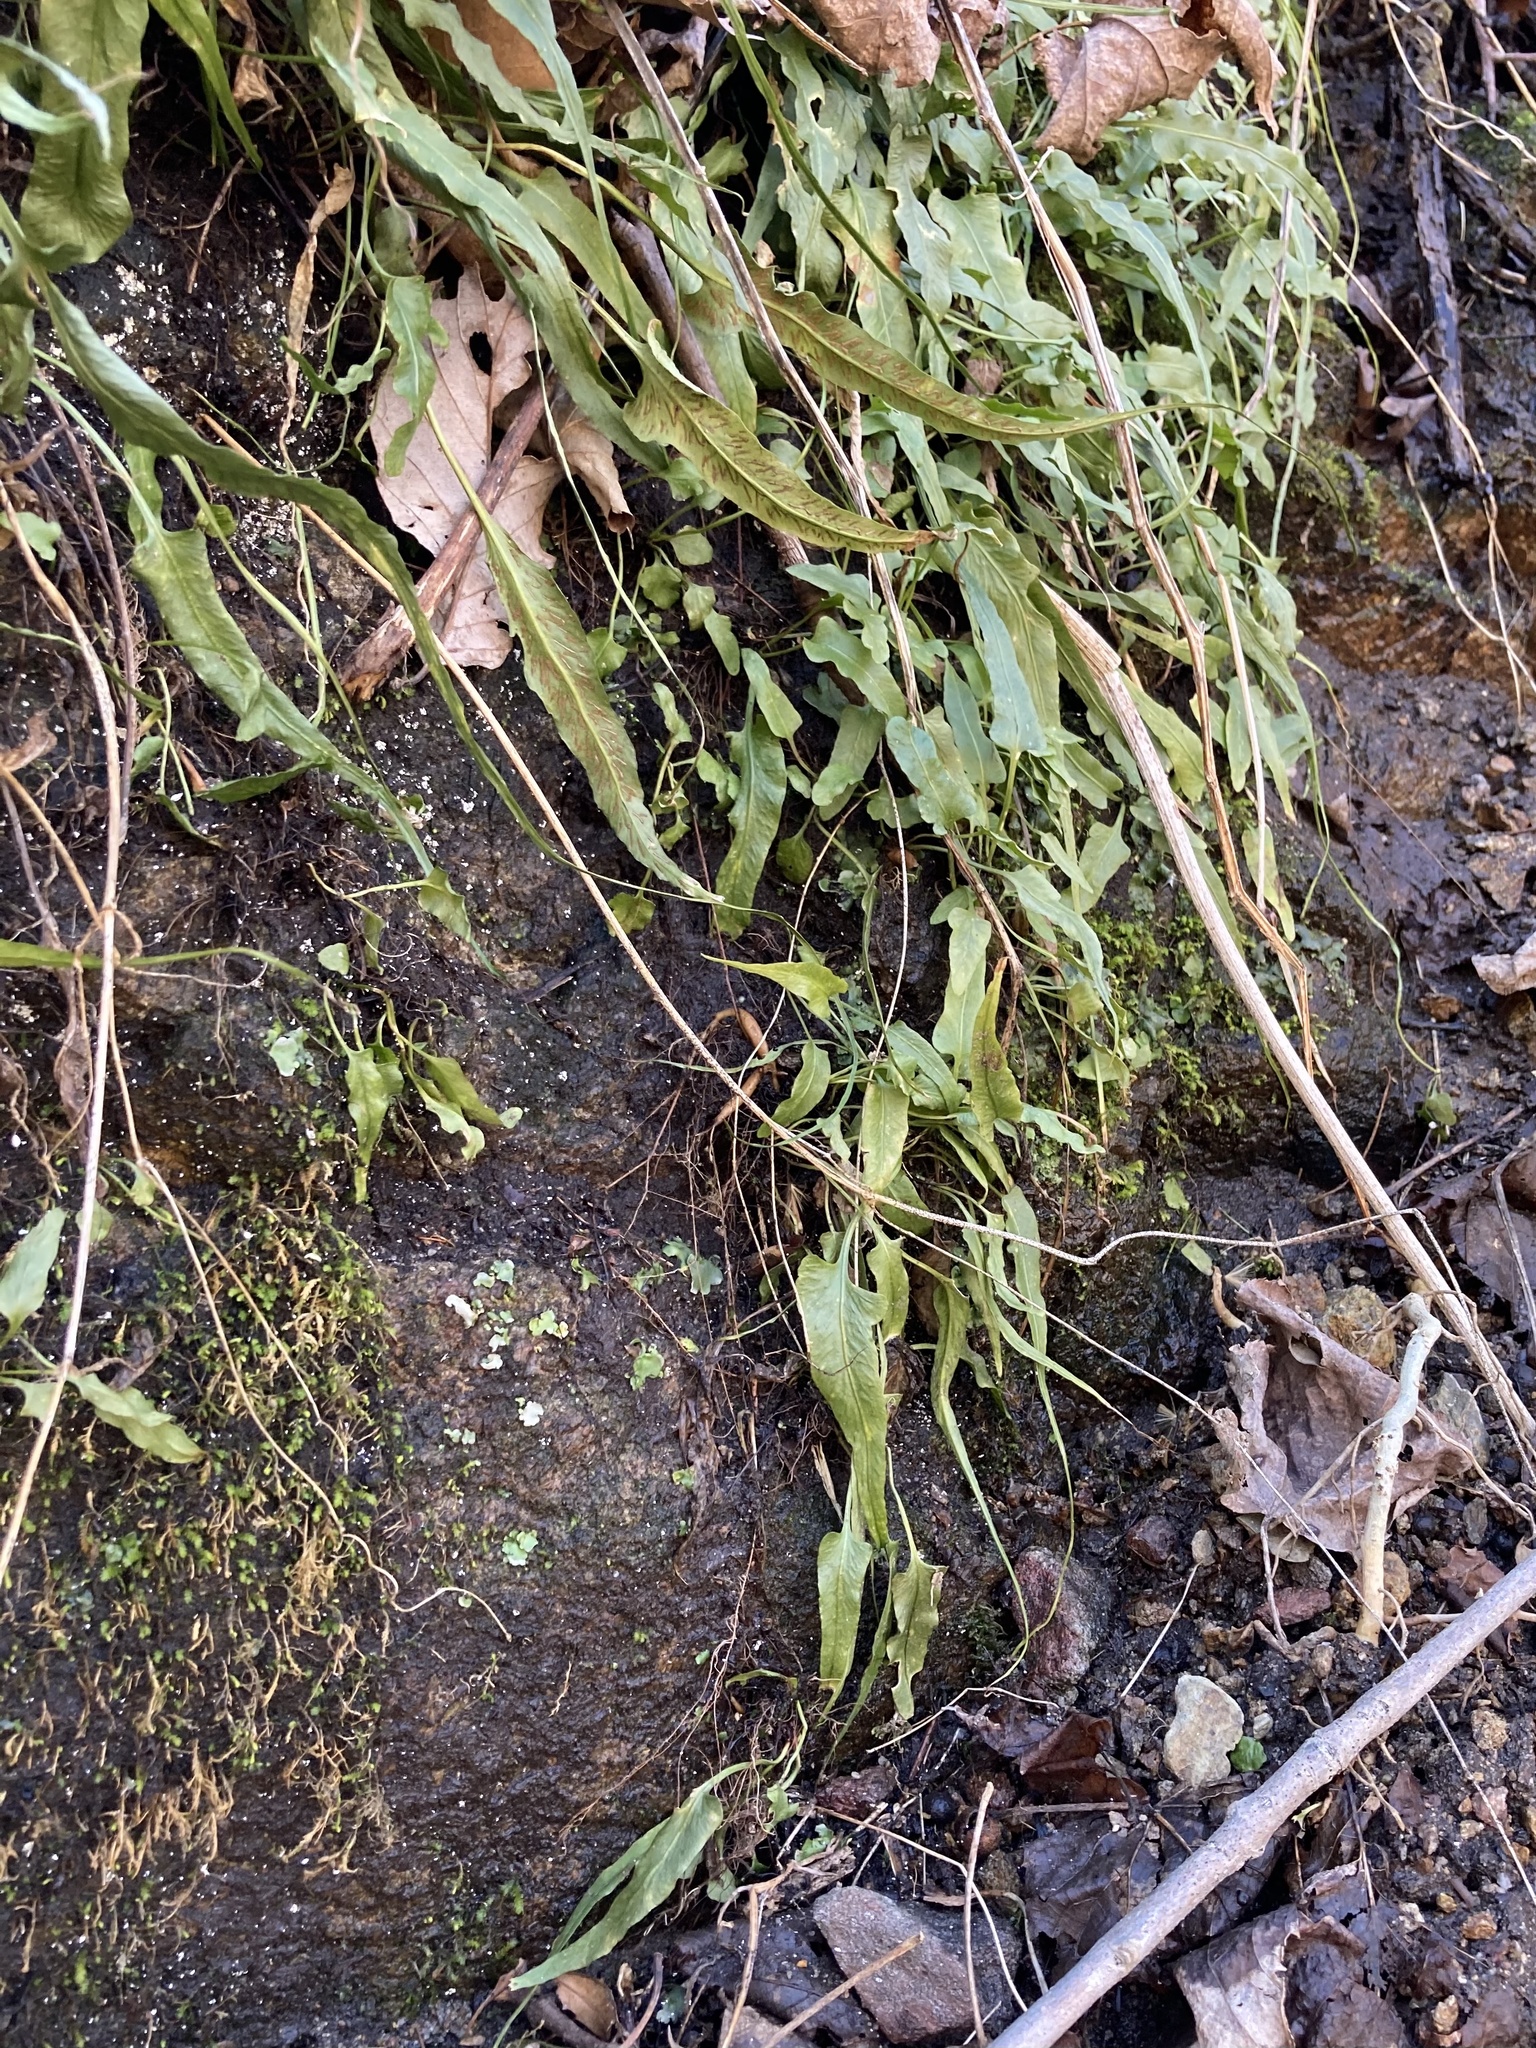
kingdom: Plantae
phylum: Tracheophyta
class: Polypodiopsida
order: Polypodiales
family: Aspleniaceae
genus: Asplenium
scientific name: Asplenium rhizophyllum
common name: Walking fern
